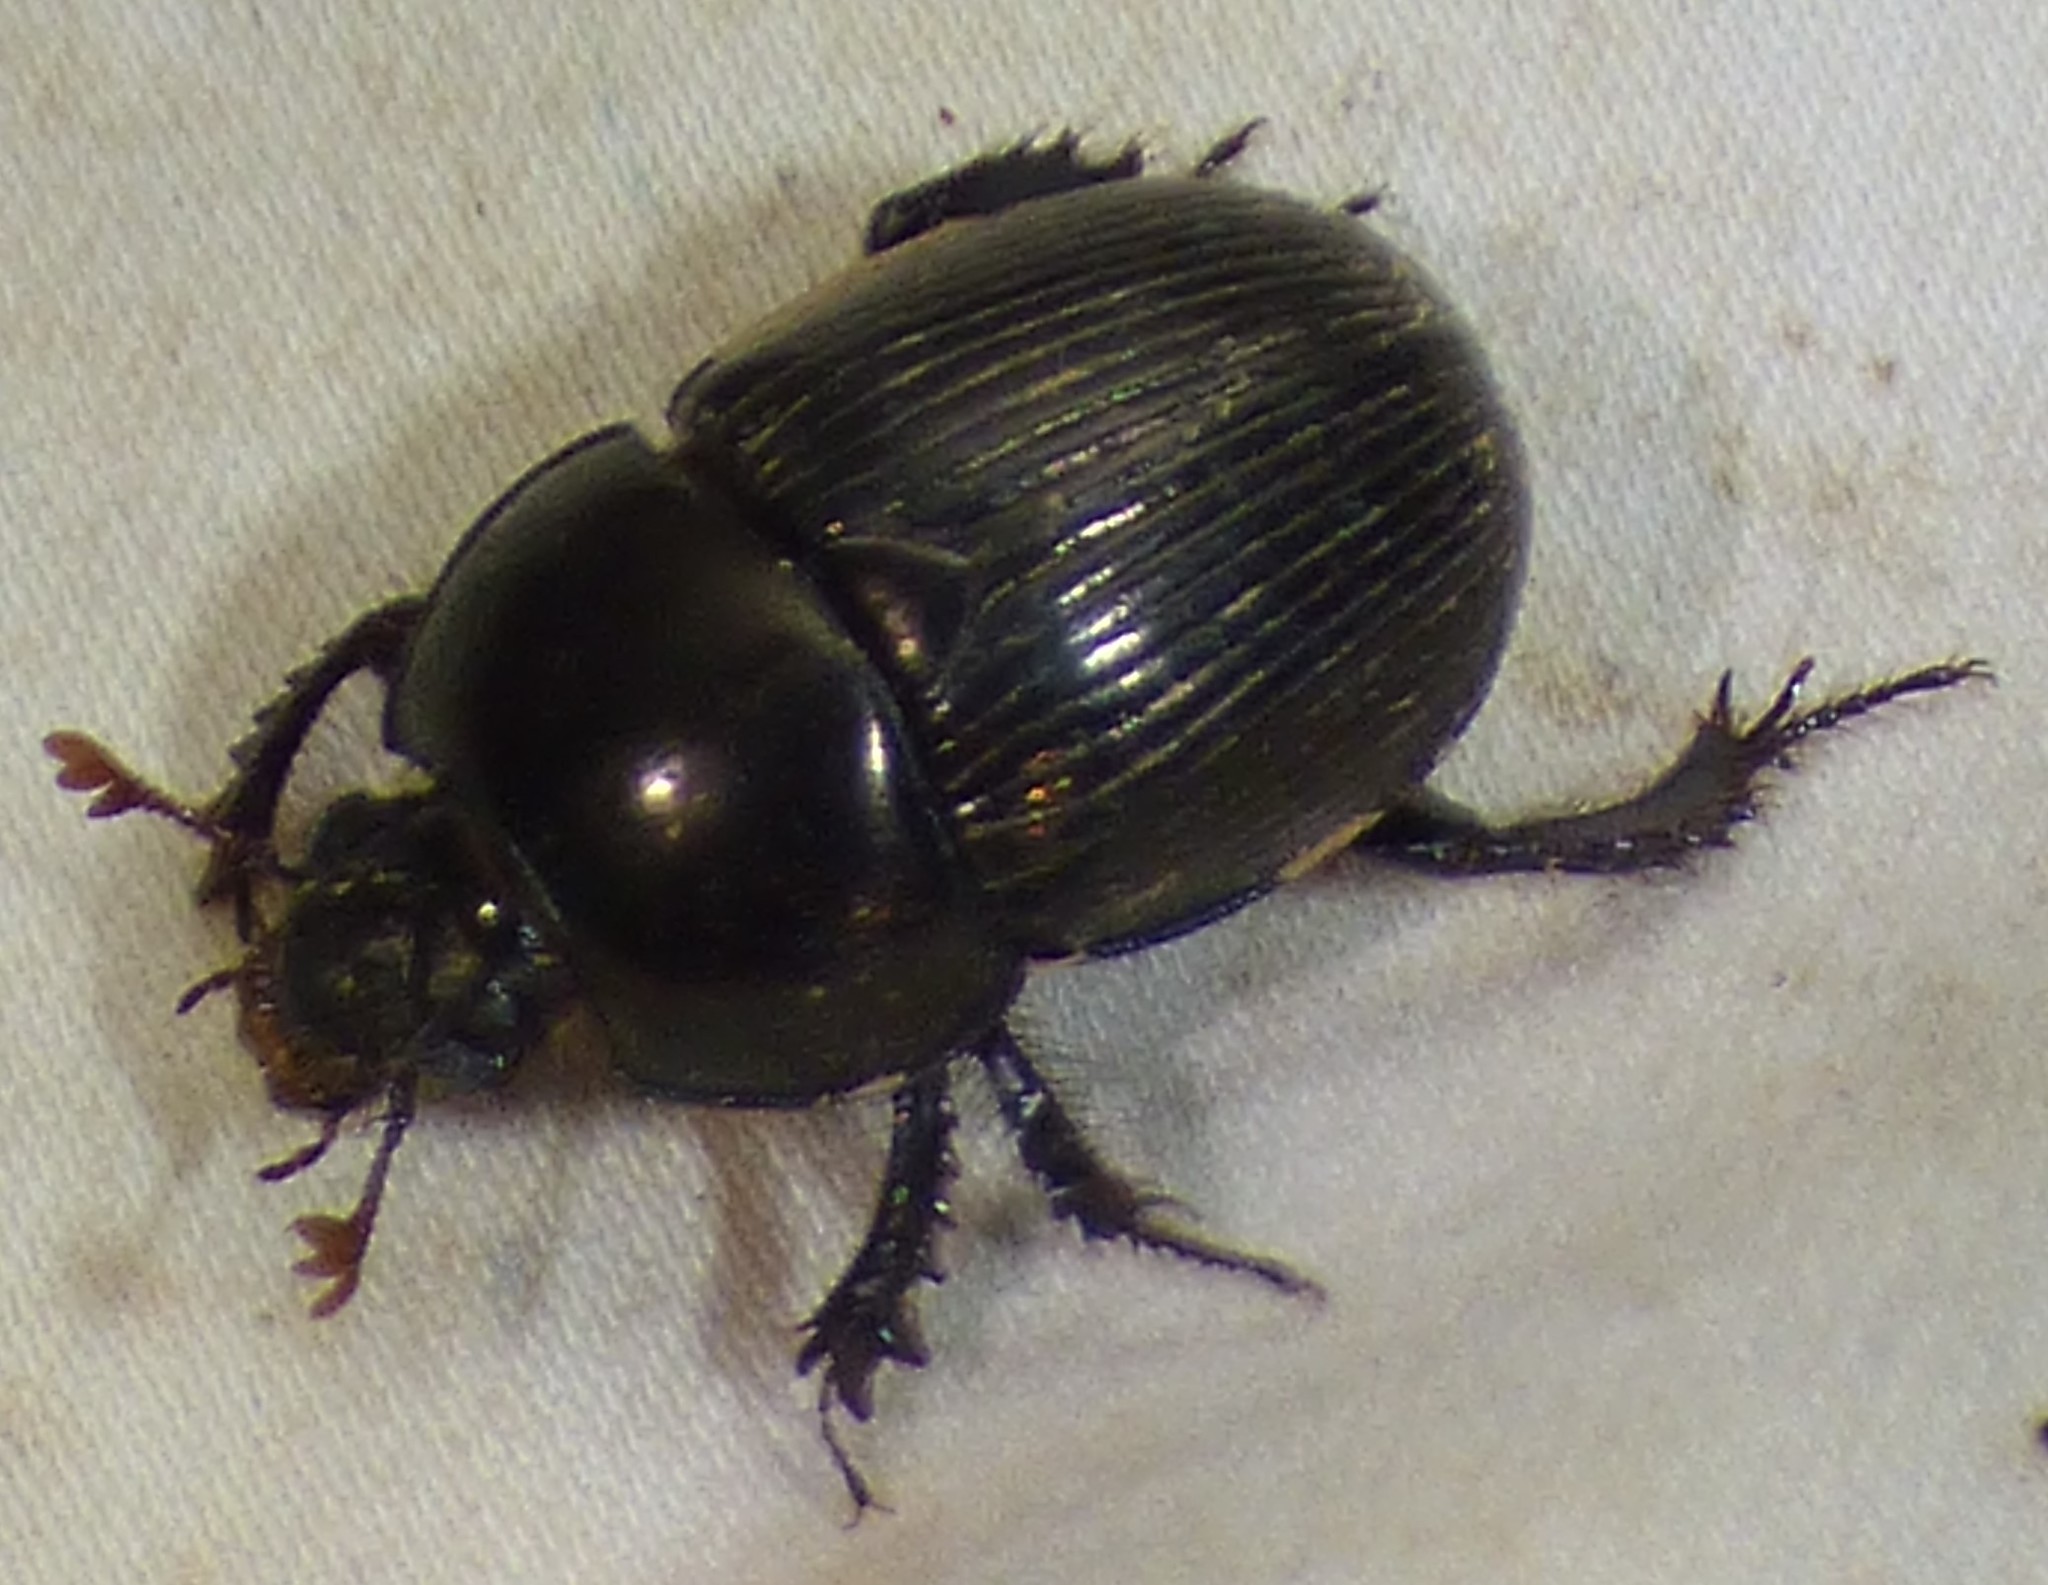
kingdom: Animalia
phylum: Arthropoda
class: Insecta
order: Coleoptera
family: Geotrupidae
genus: Cnemotrupes
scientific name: Cnemotrupes semiopacus
